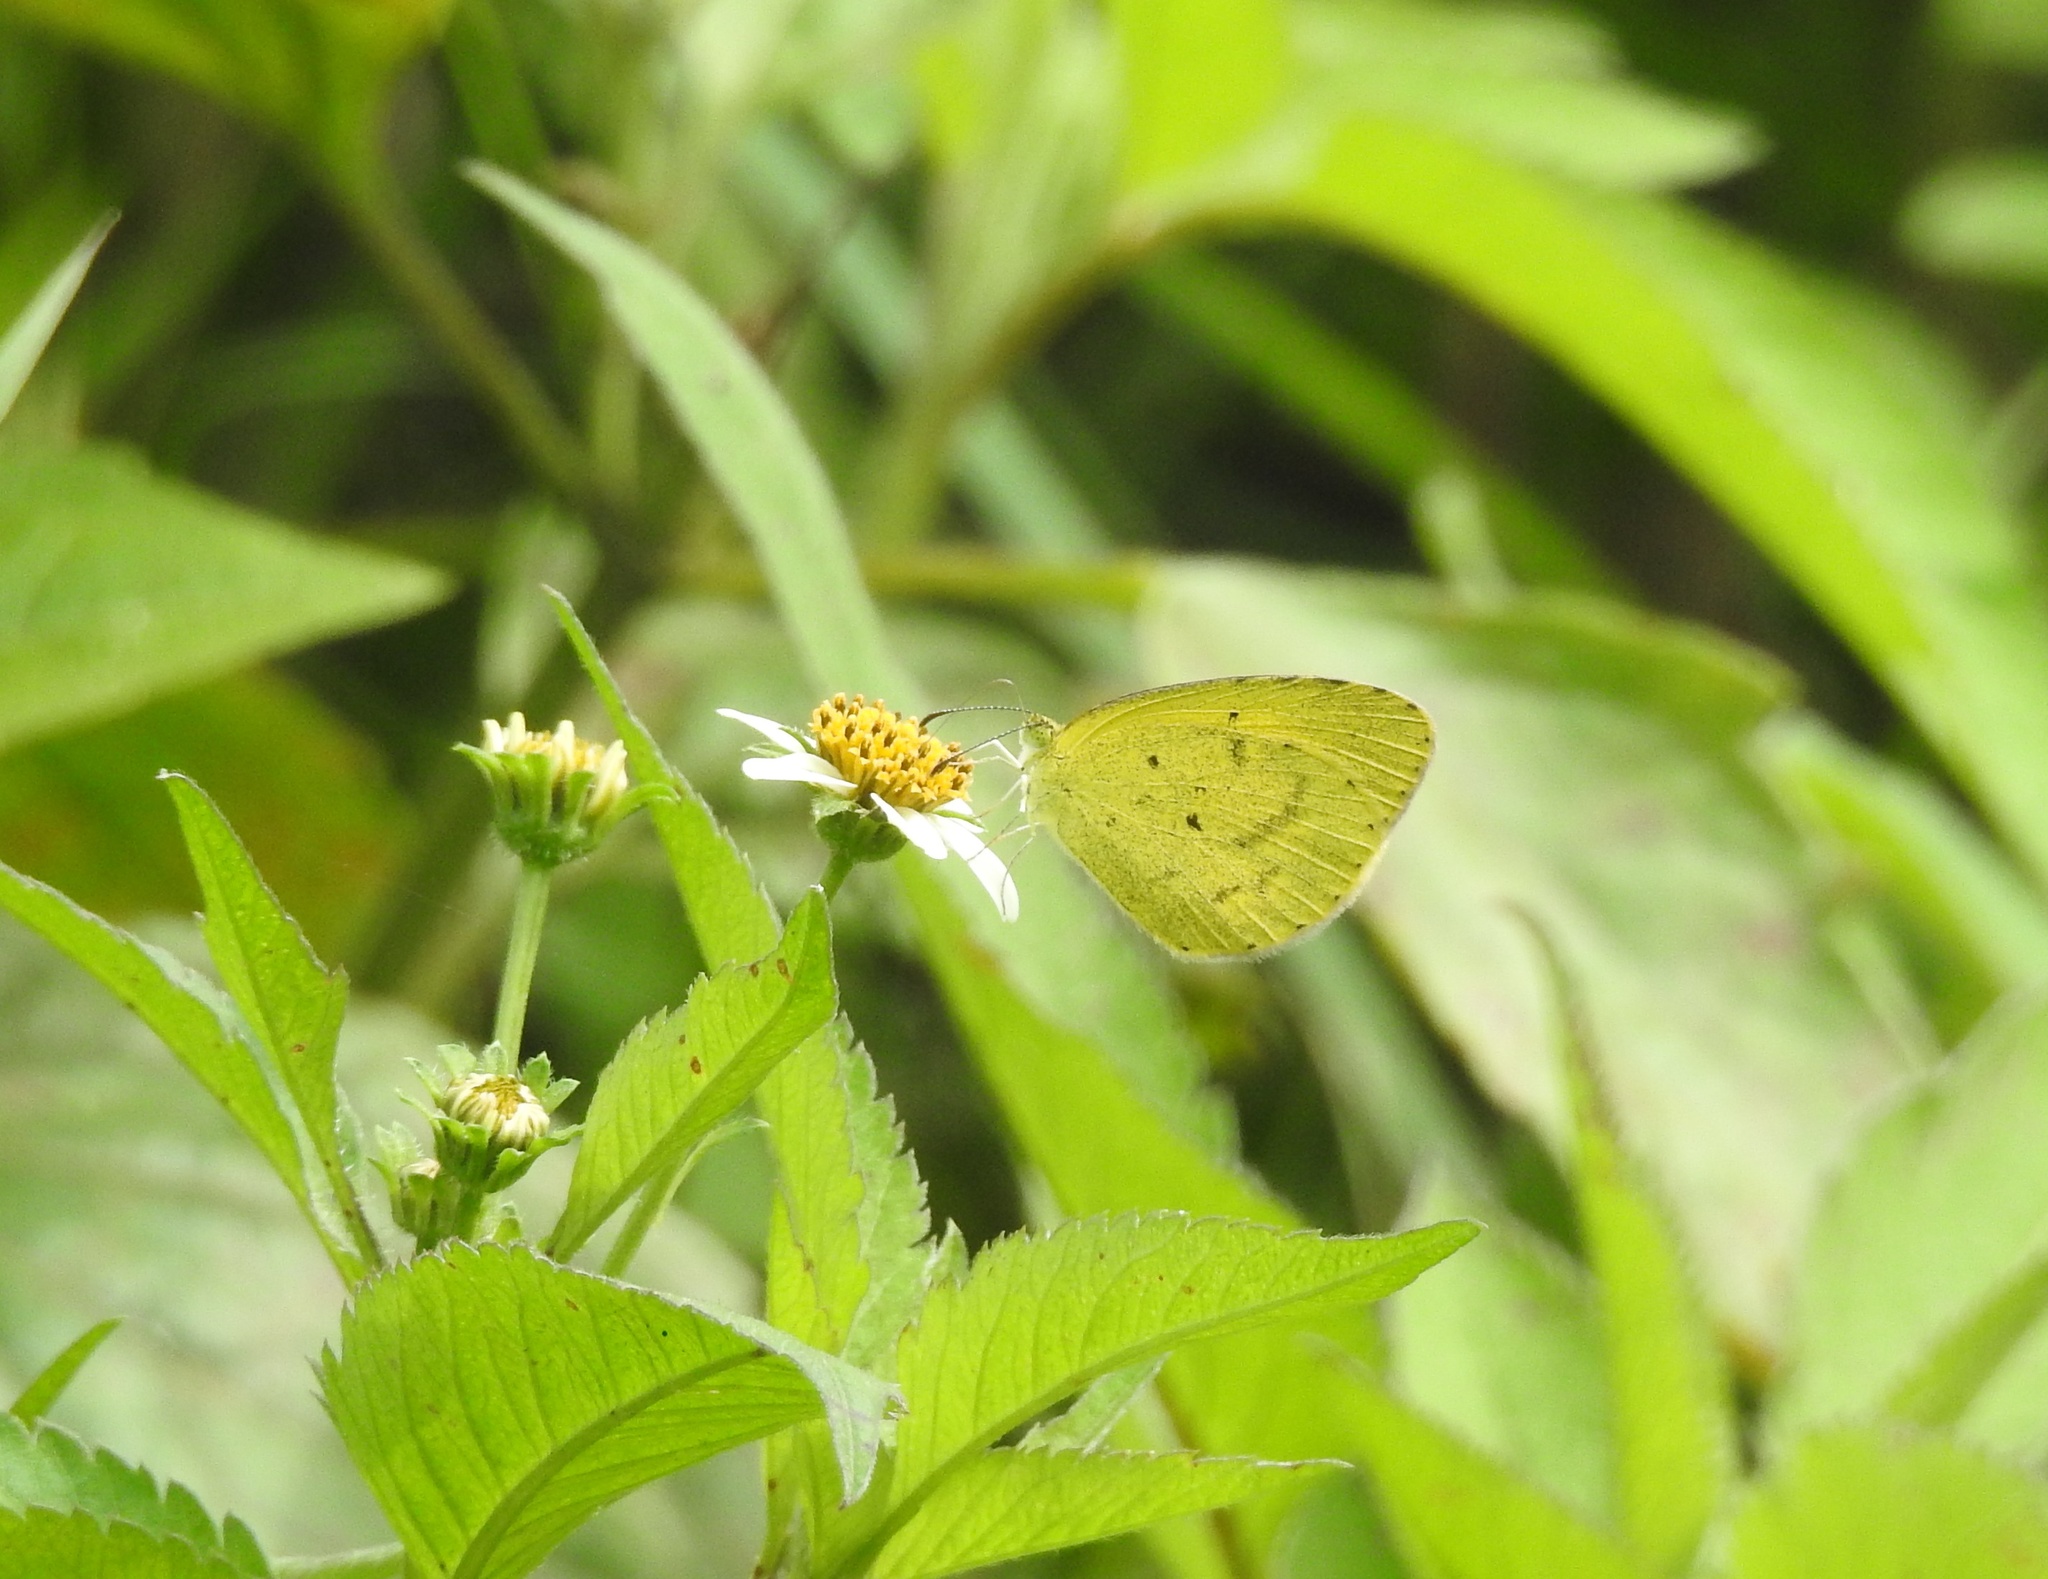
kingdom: Animalia
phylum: Arthropoda
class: Insecta
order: Lepidoptera
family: Pieridae
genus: Eurema
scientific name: Eurema brigitta
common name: Small grass yellow
